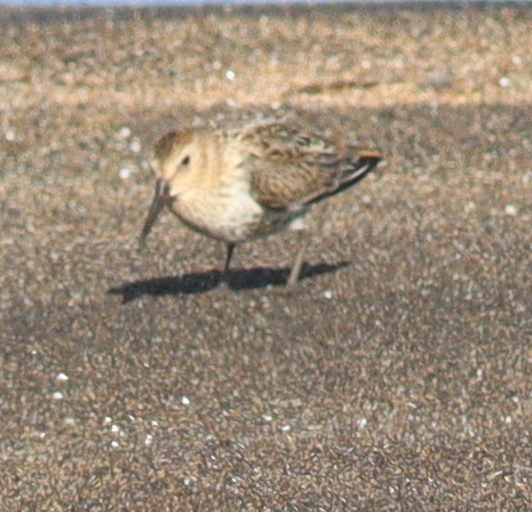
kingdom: Animalia
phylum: Chordata
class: Aves
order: Charadriiformes
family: Scolopacidae
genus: Calidris
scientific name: Calidris alpina
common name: Dunlin
